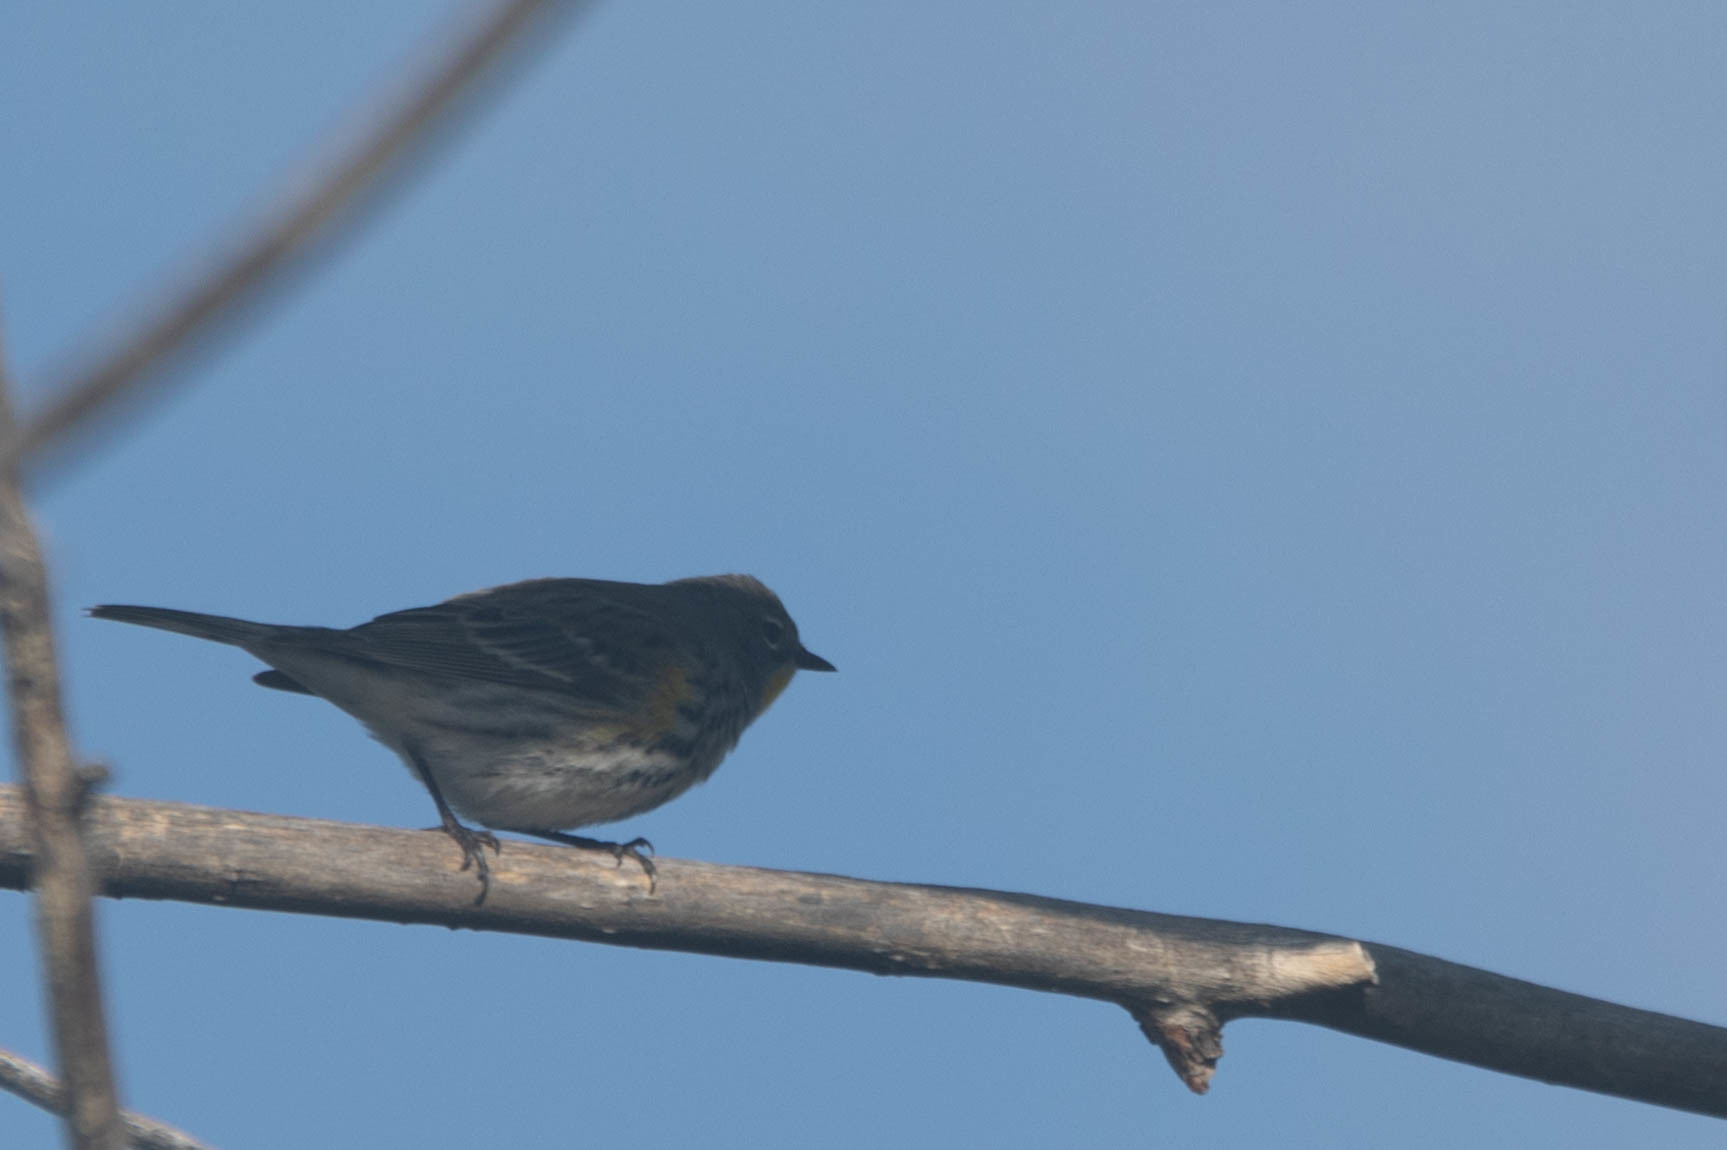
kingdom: Animalia
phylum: Chordata
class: Aves
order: Passeriformes
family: Parulidae
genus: Setophaga
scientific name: Setophaga coronata
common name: Myrtle warbler
